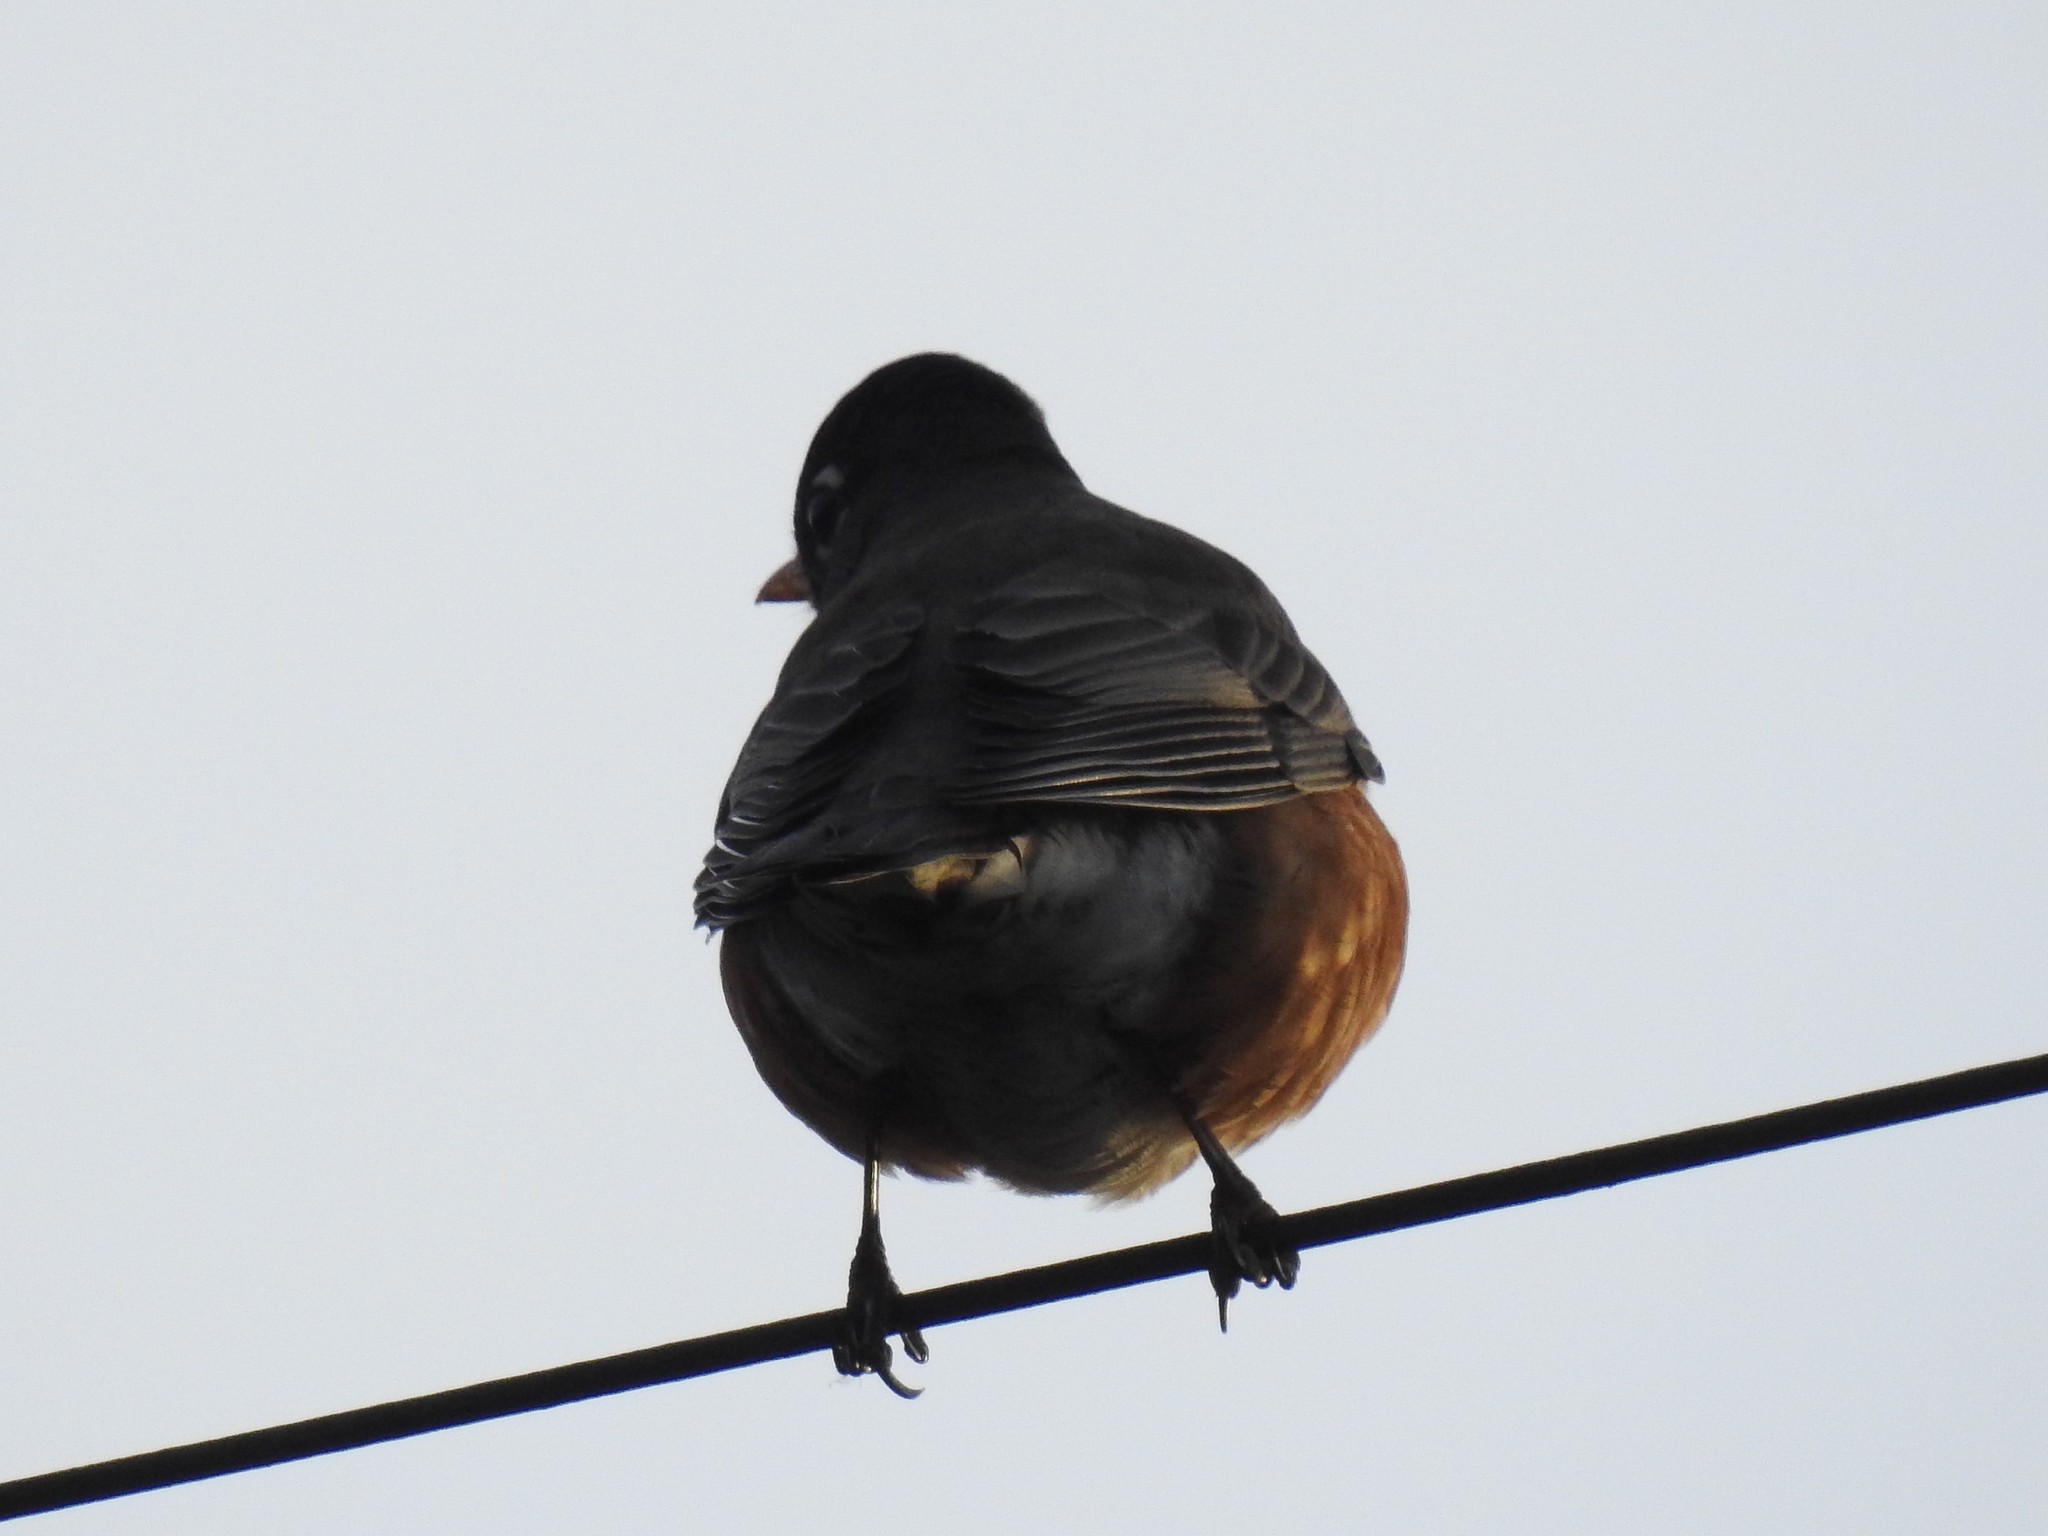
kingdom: Animalia
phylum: Chordata
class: Aves
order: Passeriformes
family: Turdidae
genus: Turdus
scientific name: Turdus migratorius
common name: American robin
